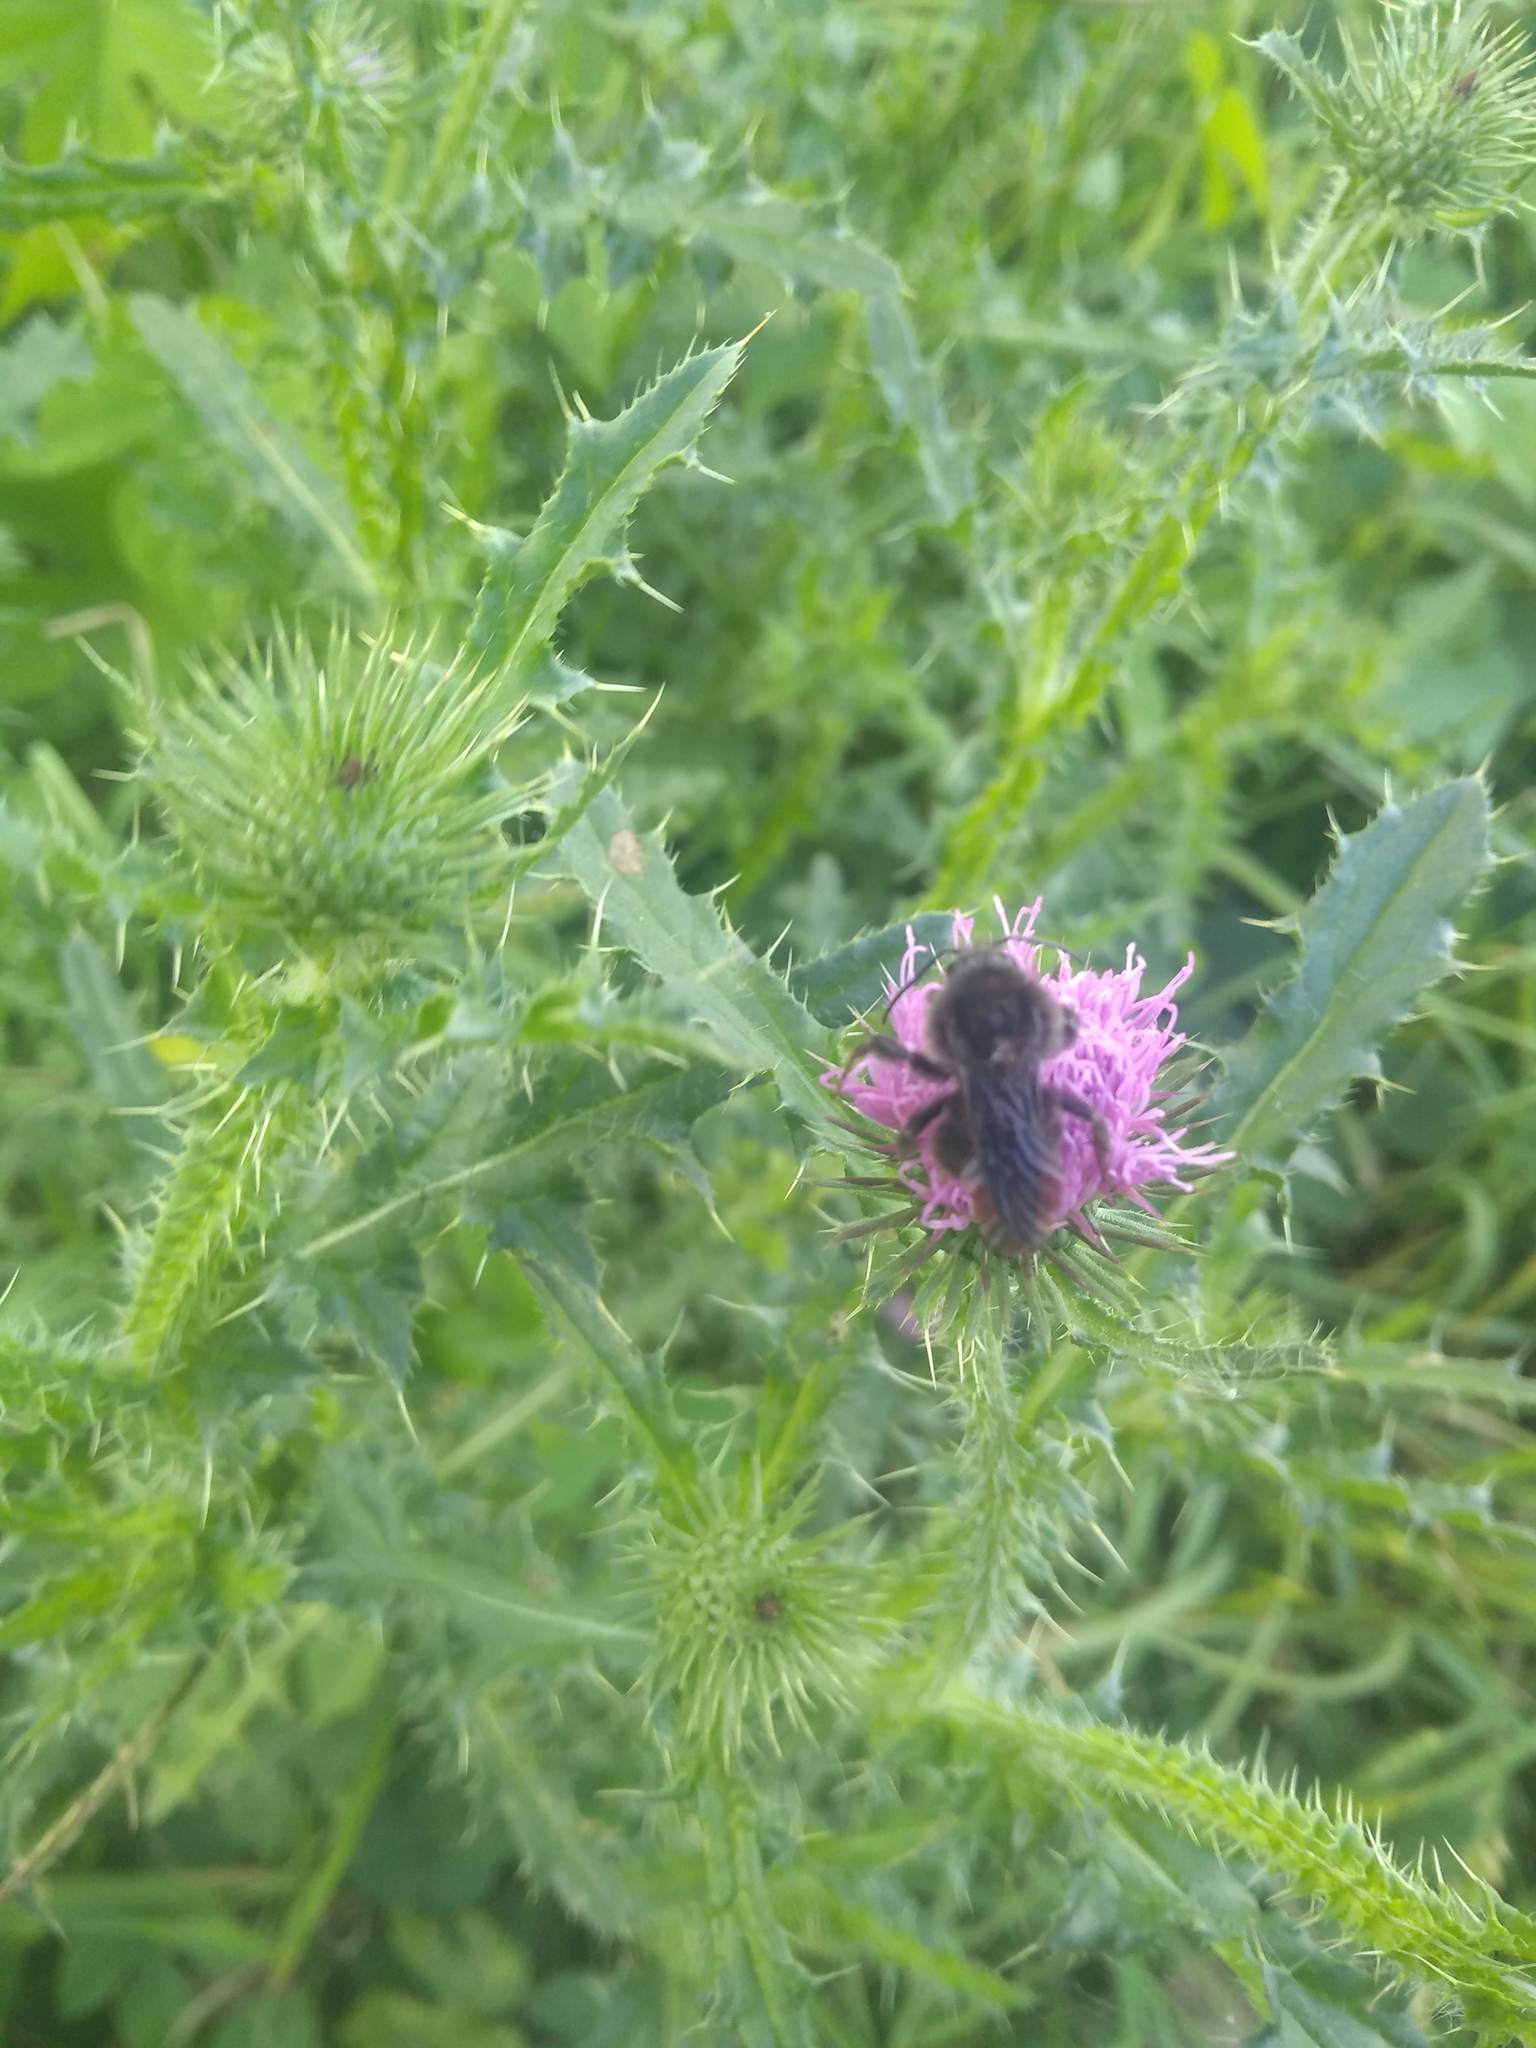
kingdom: Animalia
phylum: Arthropoda
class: Insecta
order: Hymenoptera
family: Apidae
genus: Bombus
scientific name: Bombus pauloensis
